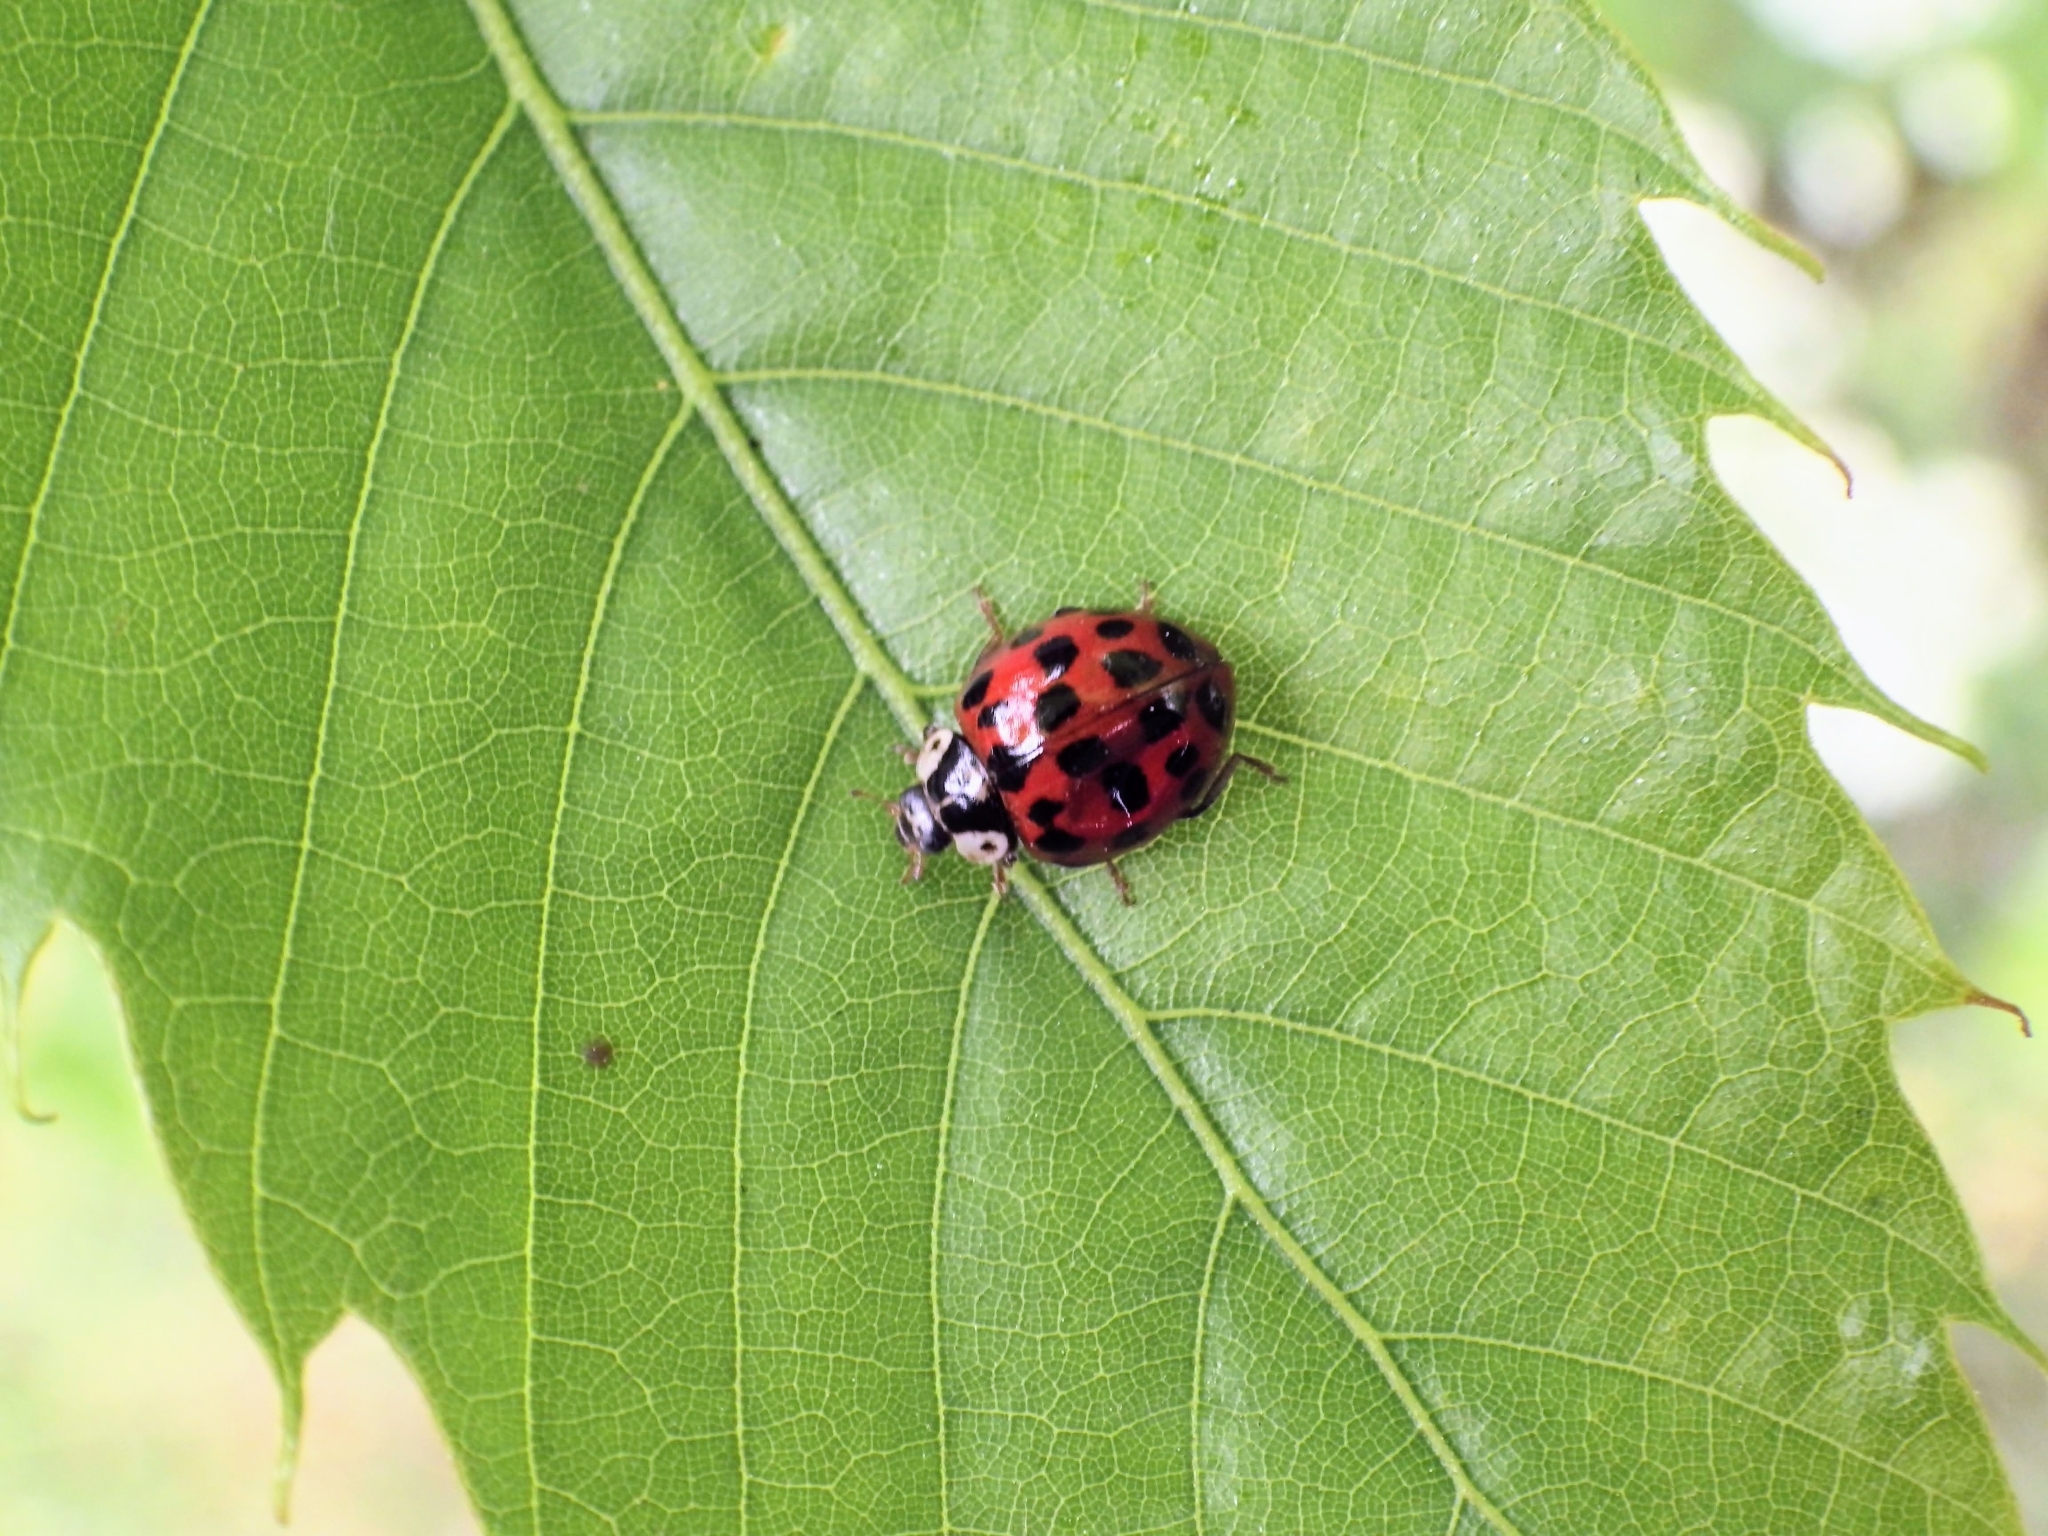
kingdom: Animalia
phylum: Arthropoda
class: Insecta
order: Coleoptera
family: Coccinellidae
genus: Harmonia
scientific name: Harmonia axyridis
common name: Harlequin ladybird
